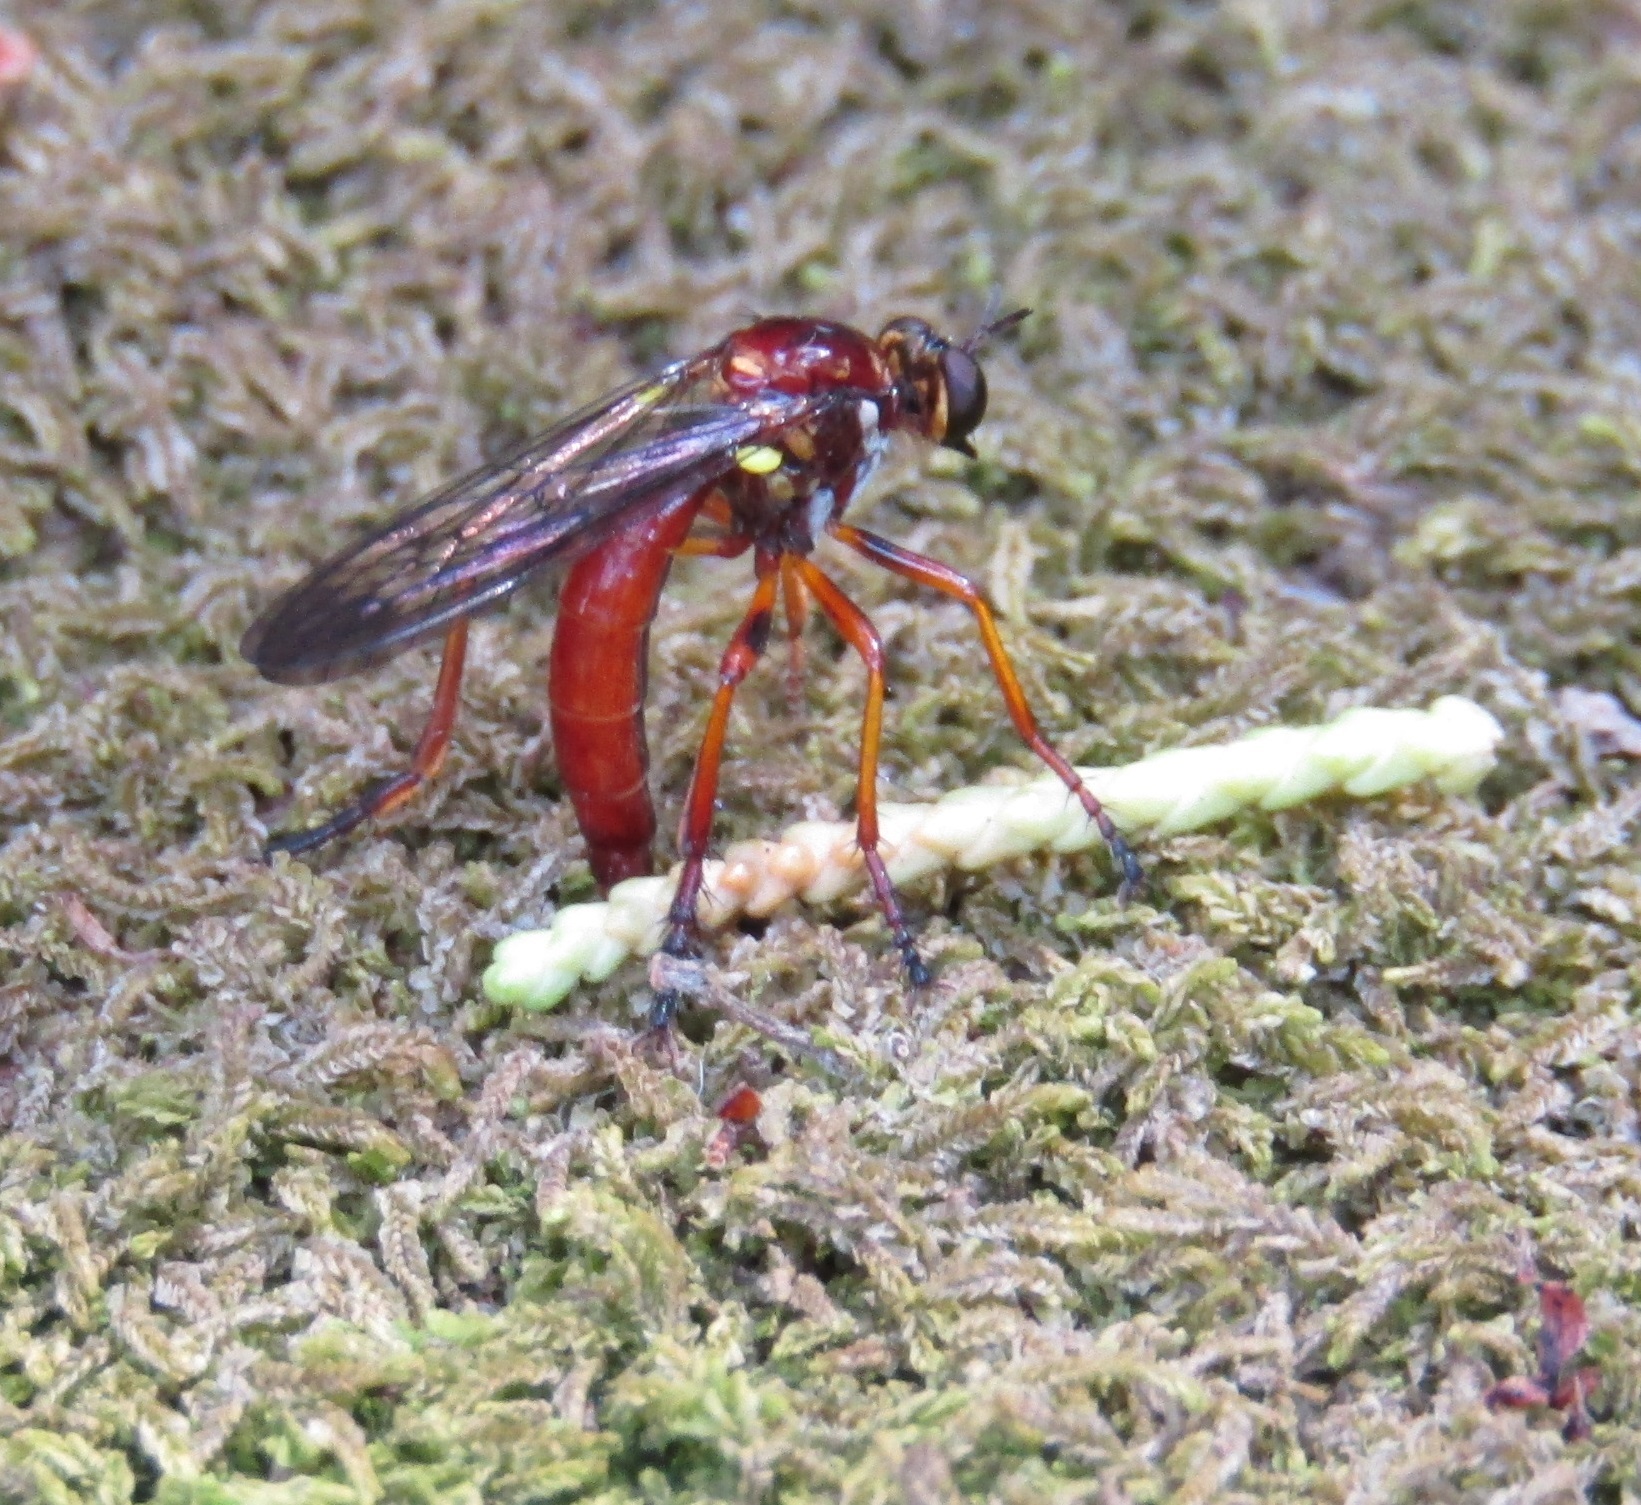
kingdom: Animalia
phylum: Arthropoda
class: Insecta
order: Diptera
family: Asilidae
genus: Saropogon
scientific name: Saropogon antipodus
